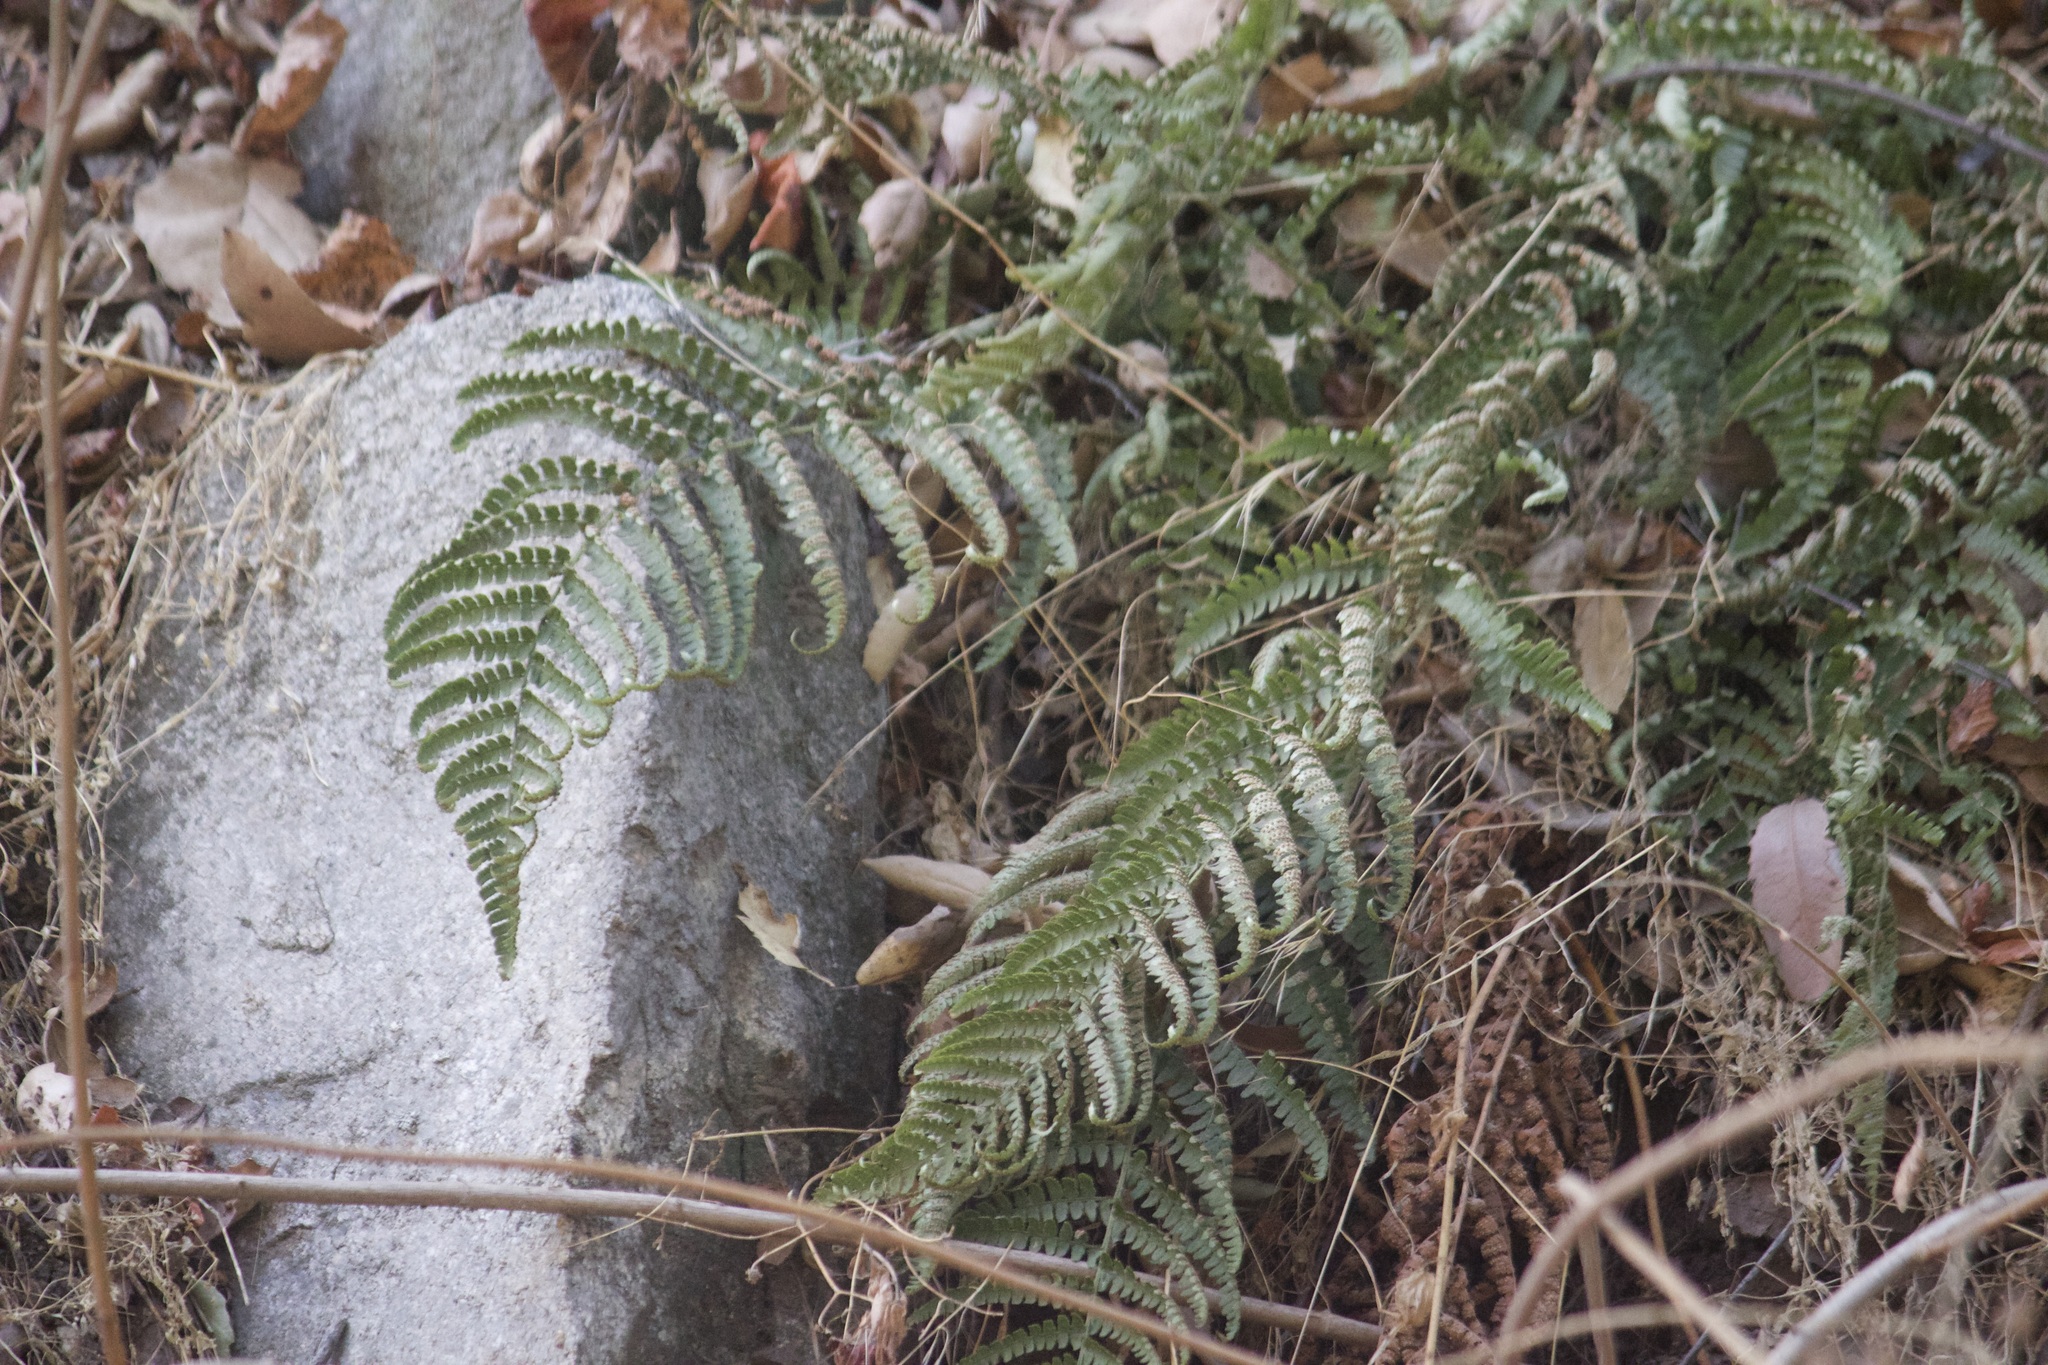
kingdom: Plantae
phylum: Tracheophyta
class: Polypodiopsida
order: Polypodiales
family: Dryopteridaceae
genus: Dryopteris
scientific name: Dryopteris arguta
